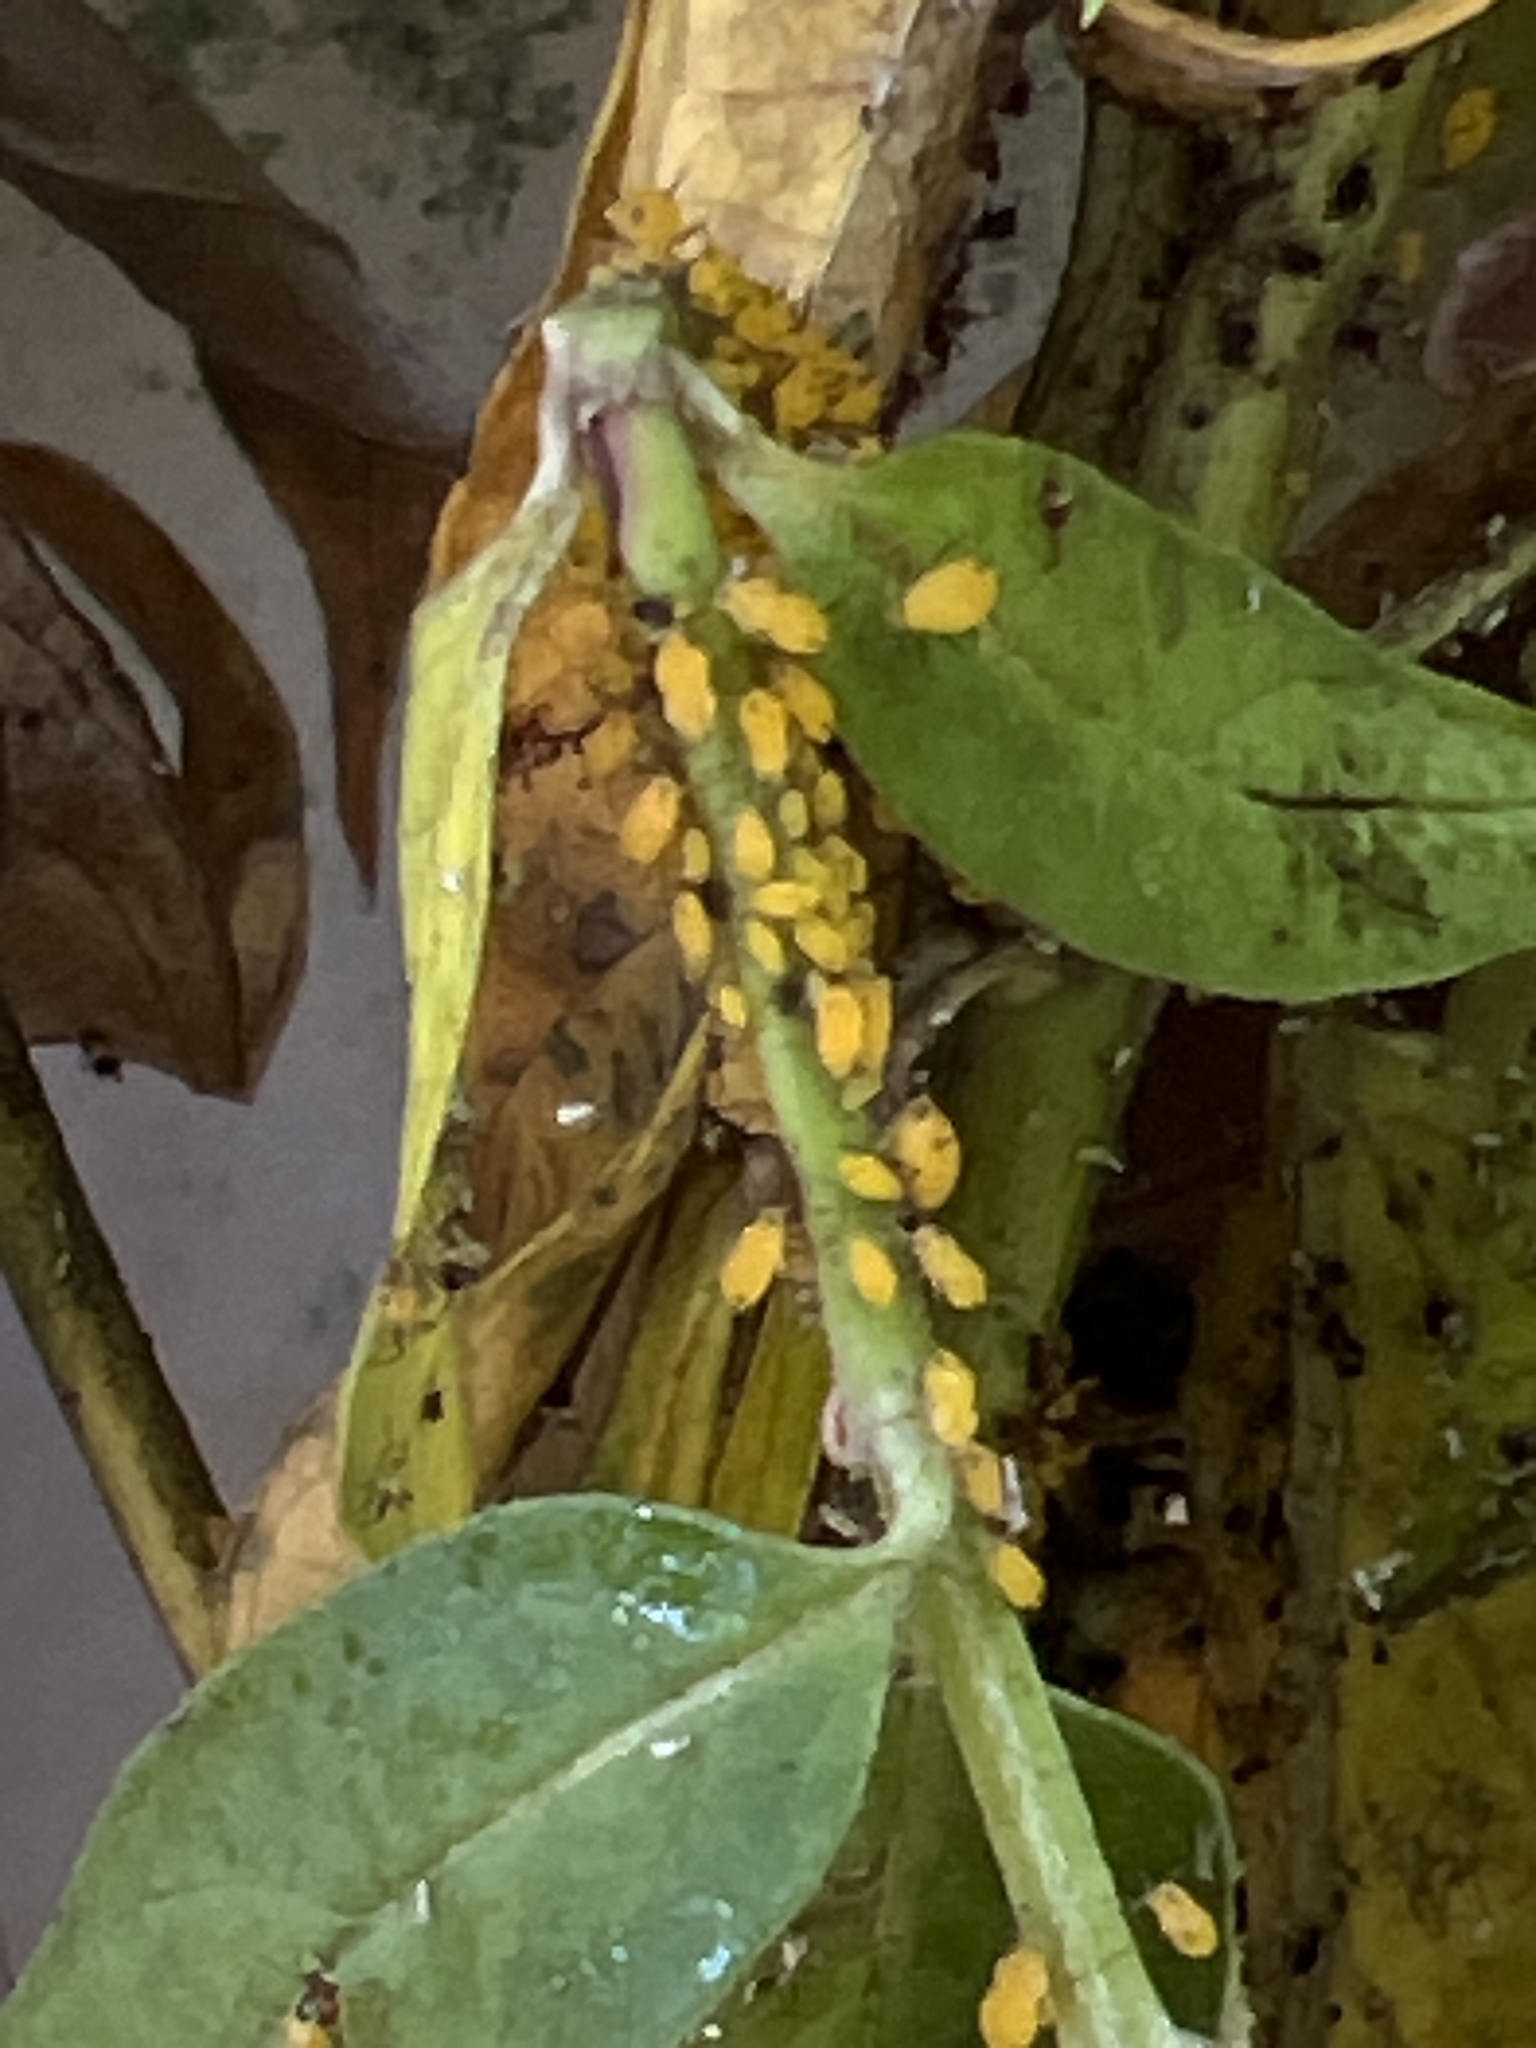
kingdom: Animalia
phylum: Arthropoda
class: Insecta
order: Hemiptera
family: Aphididae
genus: Aphis
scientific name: Aphis nerii
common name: Oleander aphid
